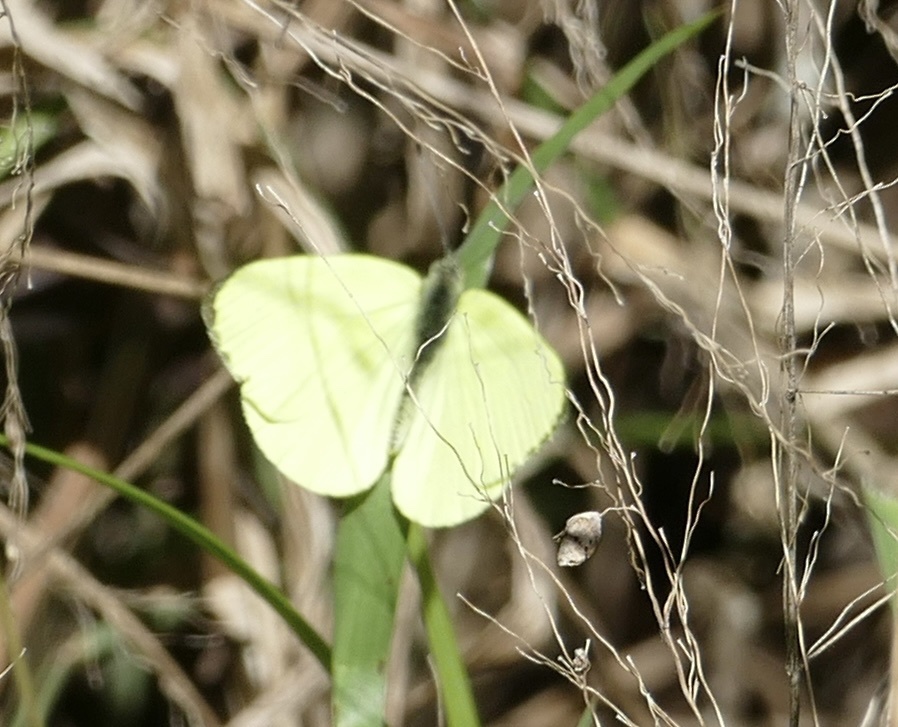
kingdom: Animalia
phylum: Arthropoda
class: Insecta
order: Lepidoptera
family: Pieridae
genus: Dixeia
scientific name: Dixeia spilleri
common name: Sulphur ant-heap white
